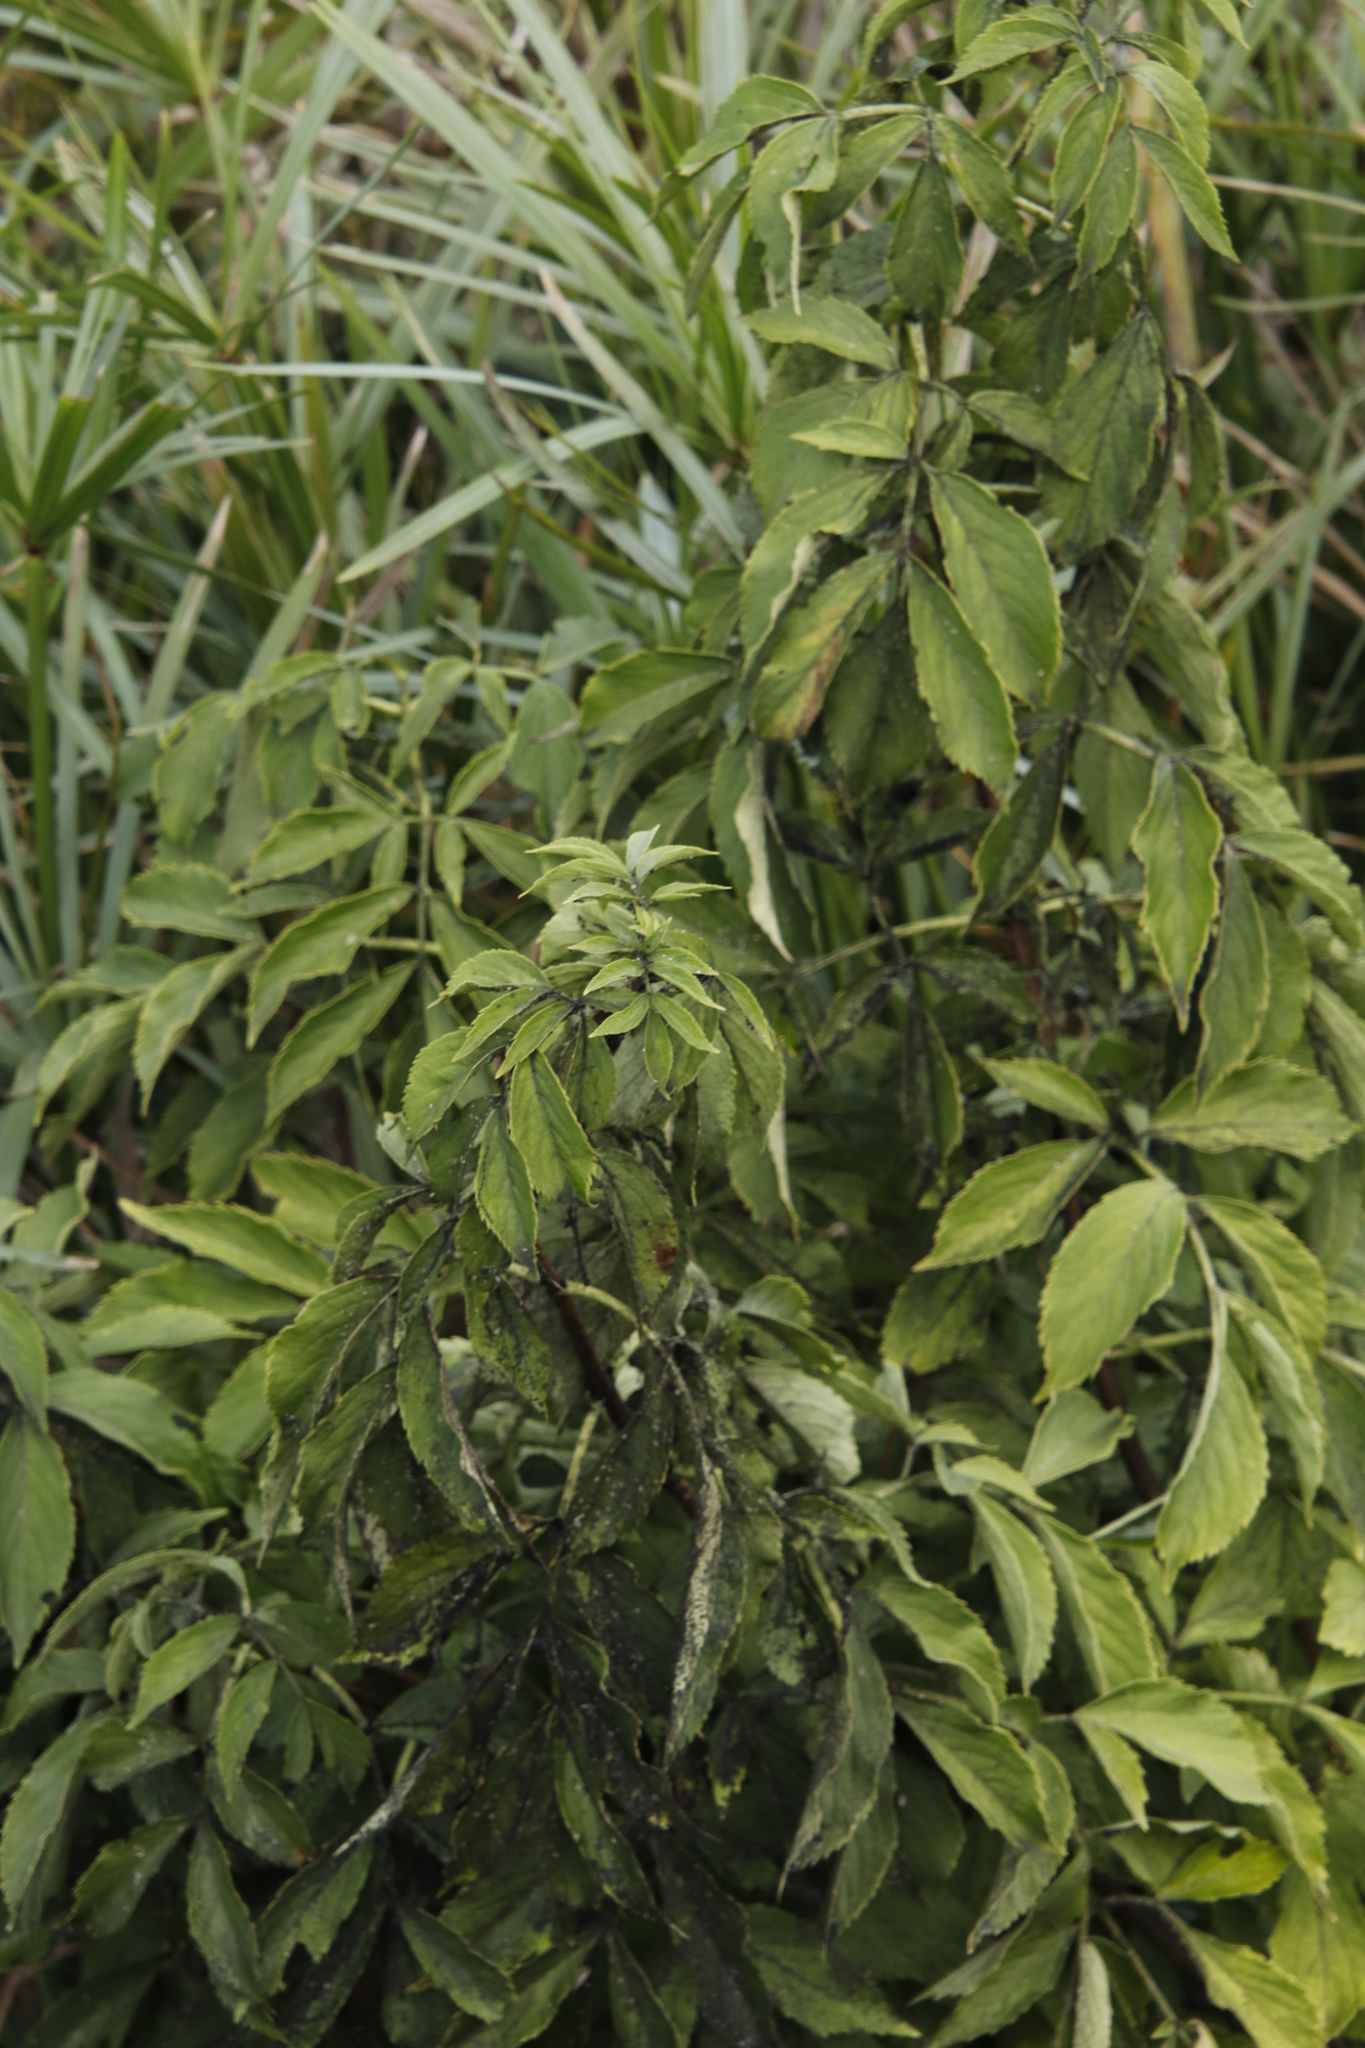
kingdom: Plantae
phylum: Tracheophyta
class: Magnoliopsida
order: Dipsacales
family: Viburnaceae
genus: Sambucus
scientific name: Sambucus nigra
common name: Elder
